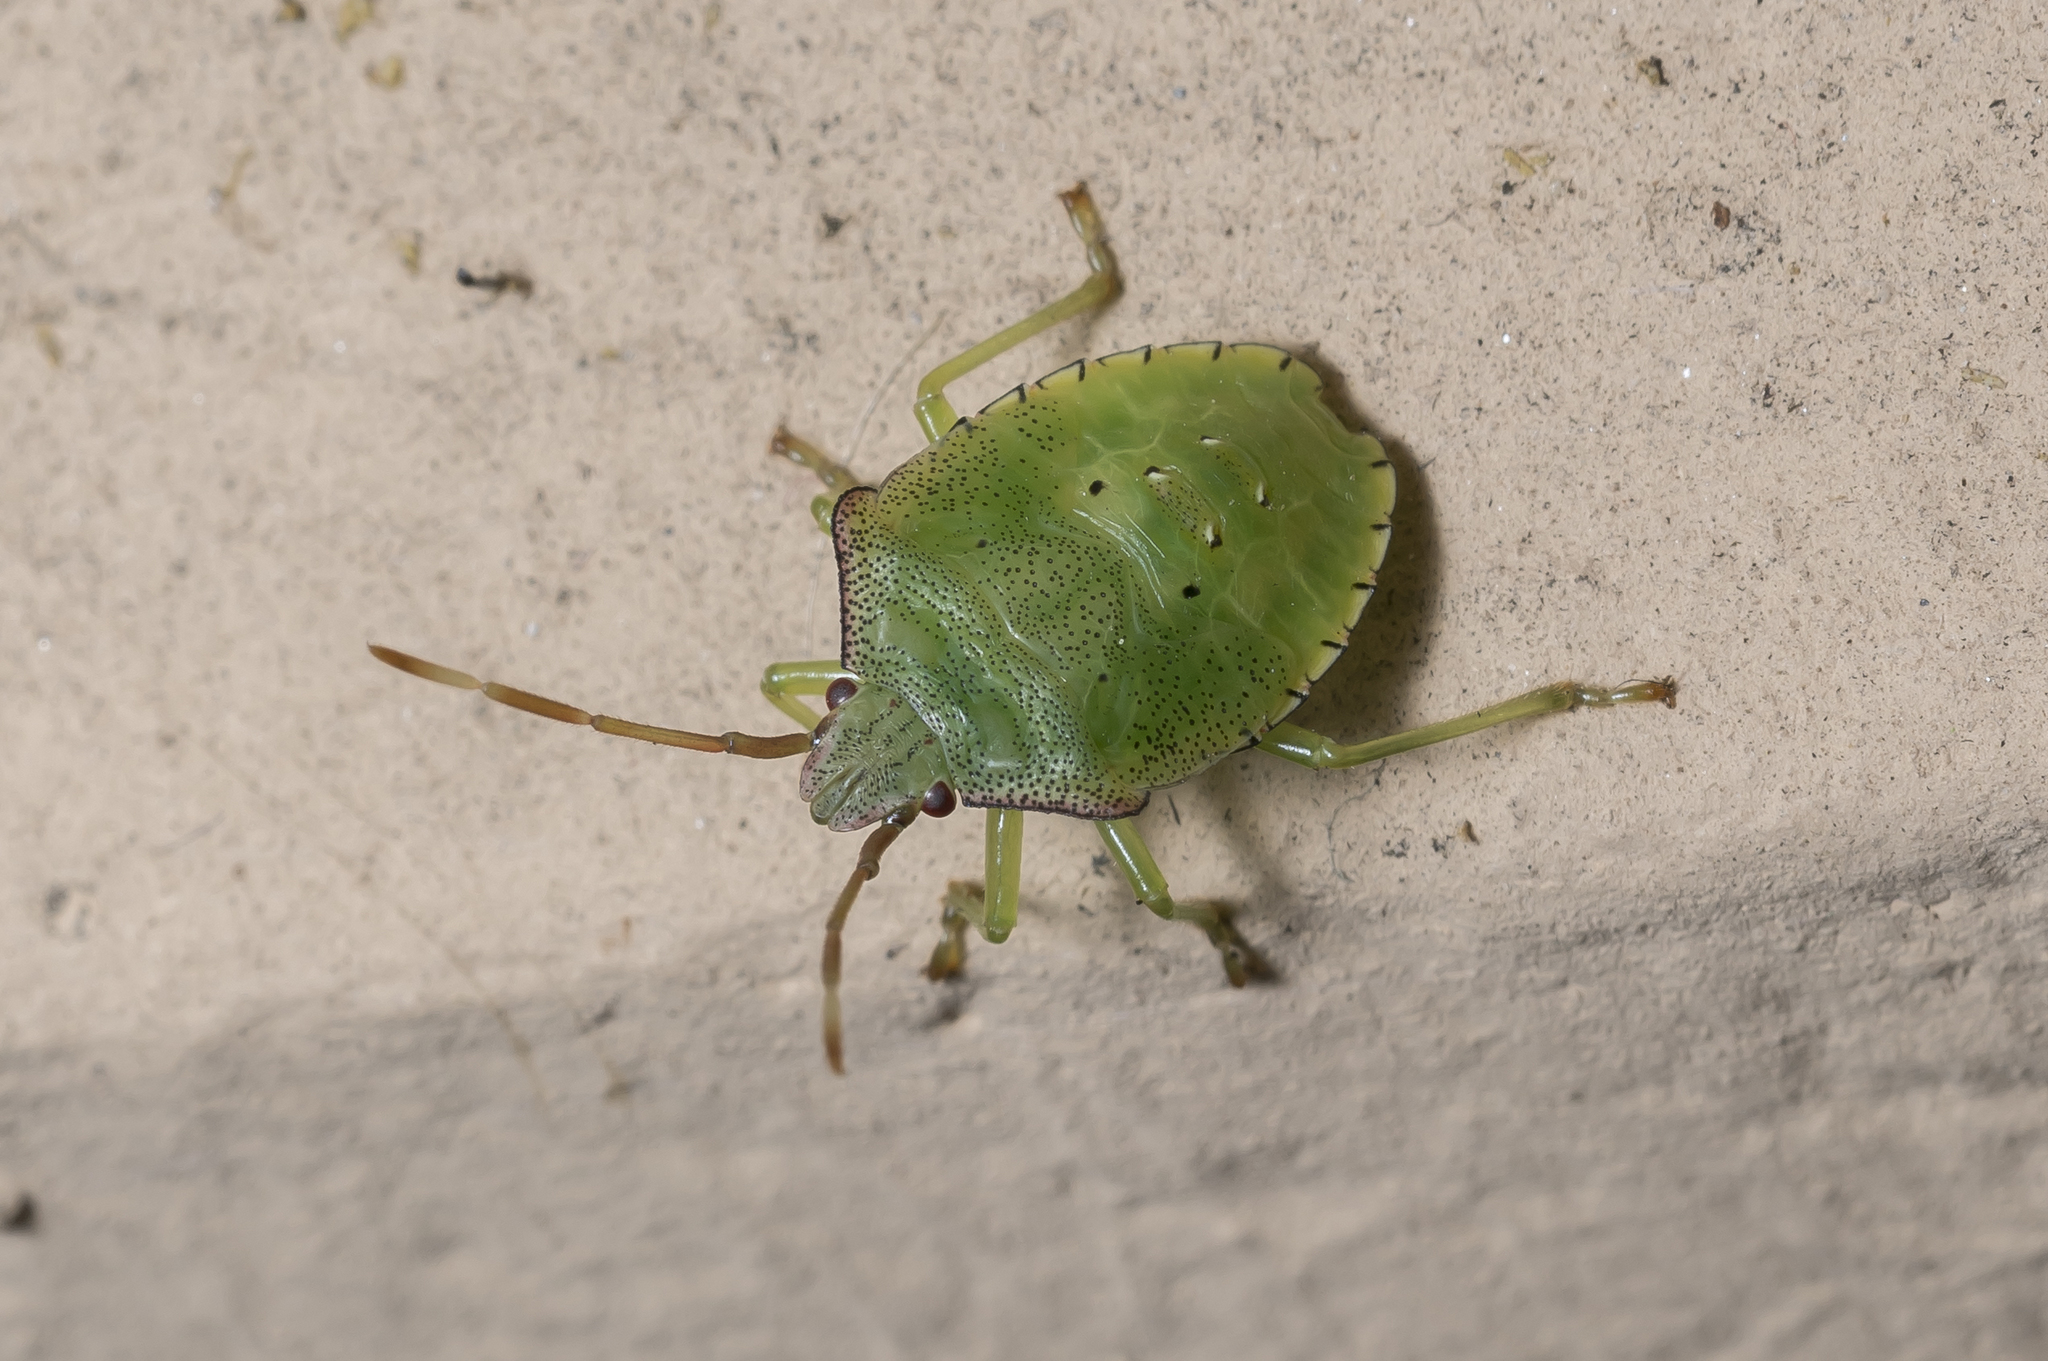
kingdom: Animalia
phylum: Arthropoda
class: Insecta
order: Hemiptera
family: Acanthosomatidae
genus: Acanthosoma
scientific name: Acanthosoma haemorrhoidale
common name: Hawthorn shieldbug
